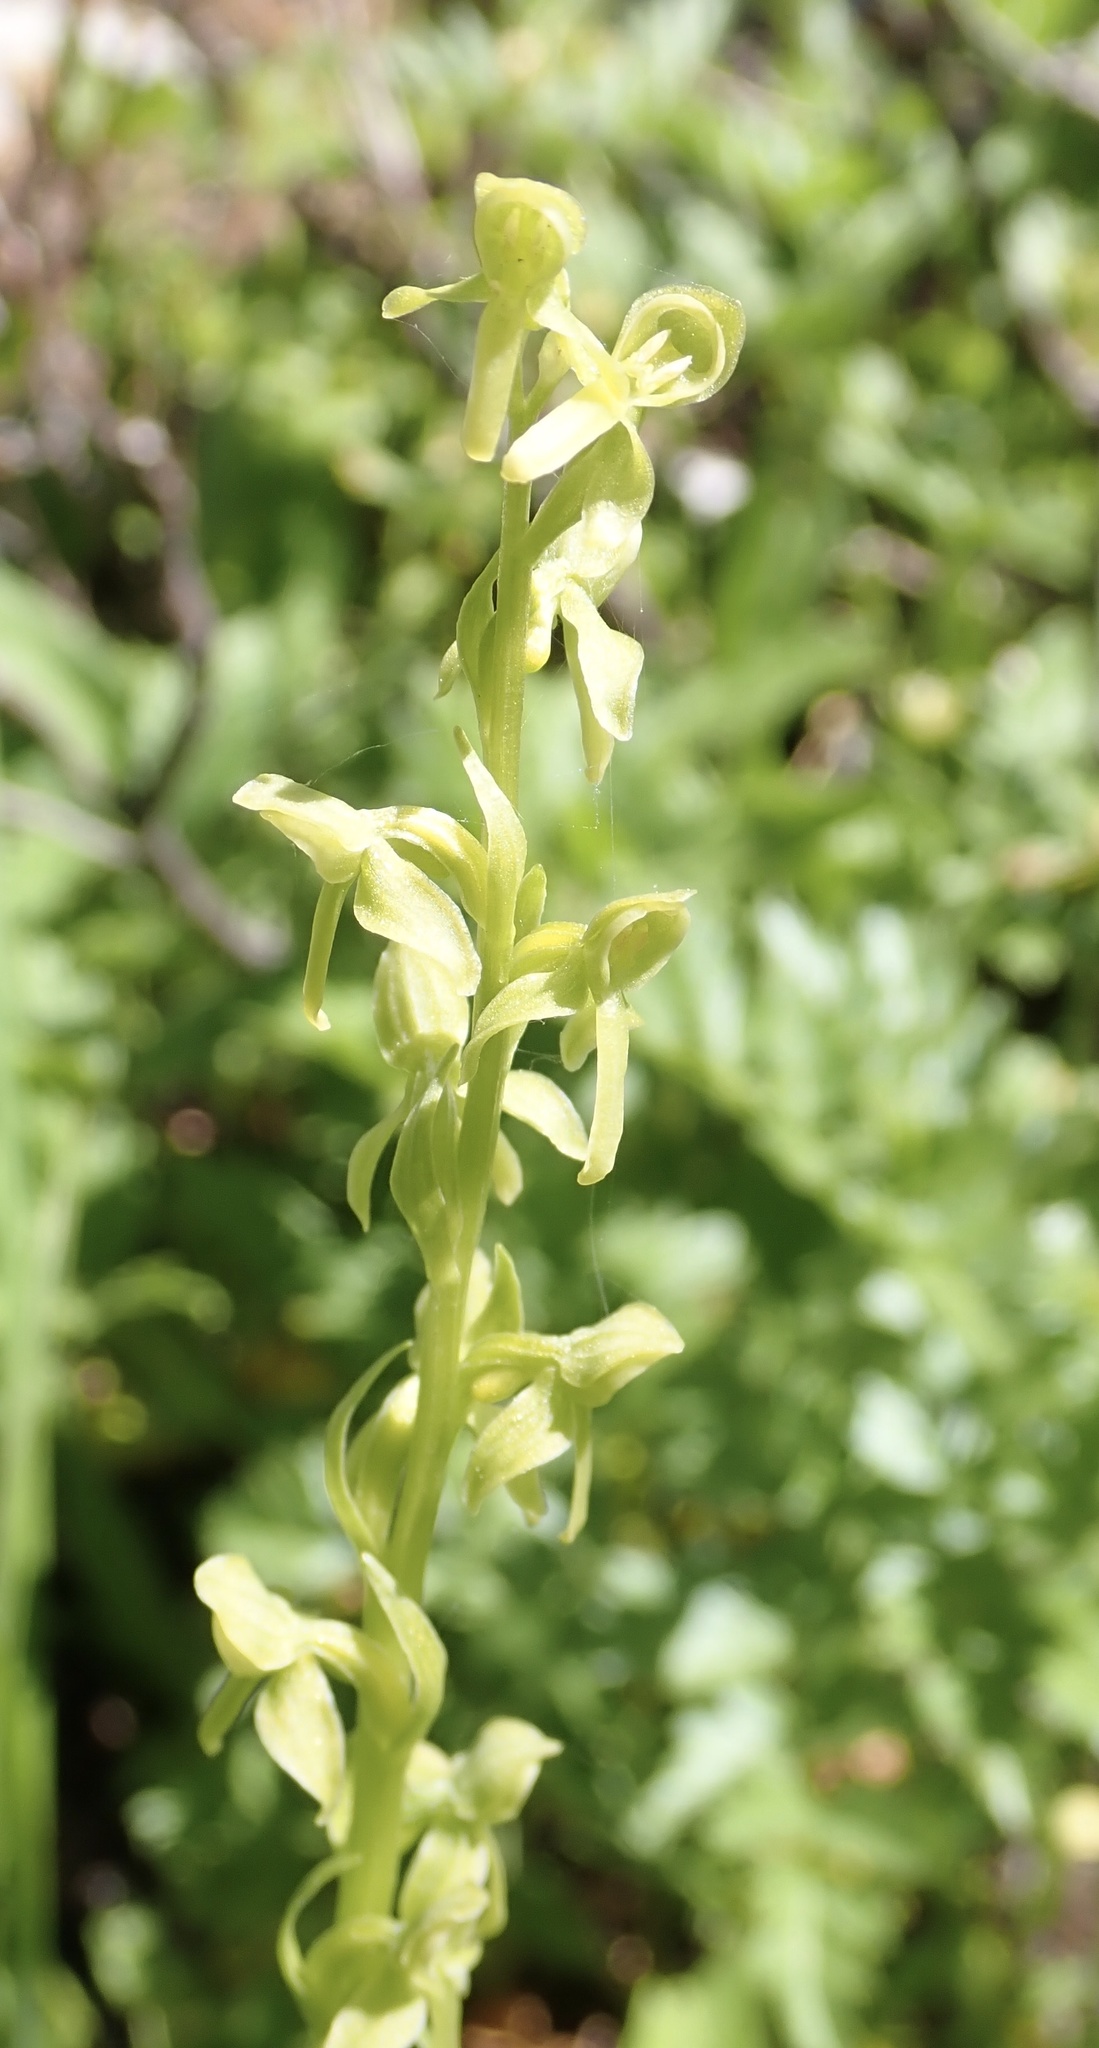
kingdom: Plantae
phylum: Tracheophyta
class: Liliopsida
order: Asparagales
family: Orchidaceae
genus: Platanthera
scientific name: Platanthera stricta
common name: Slender bog orchid
